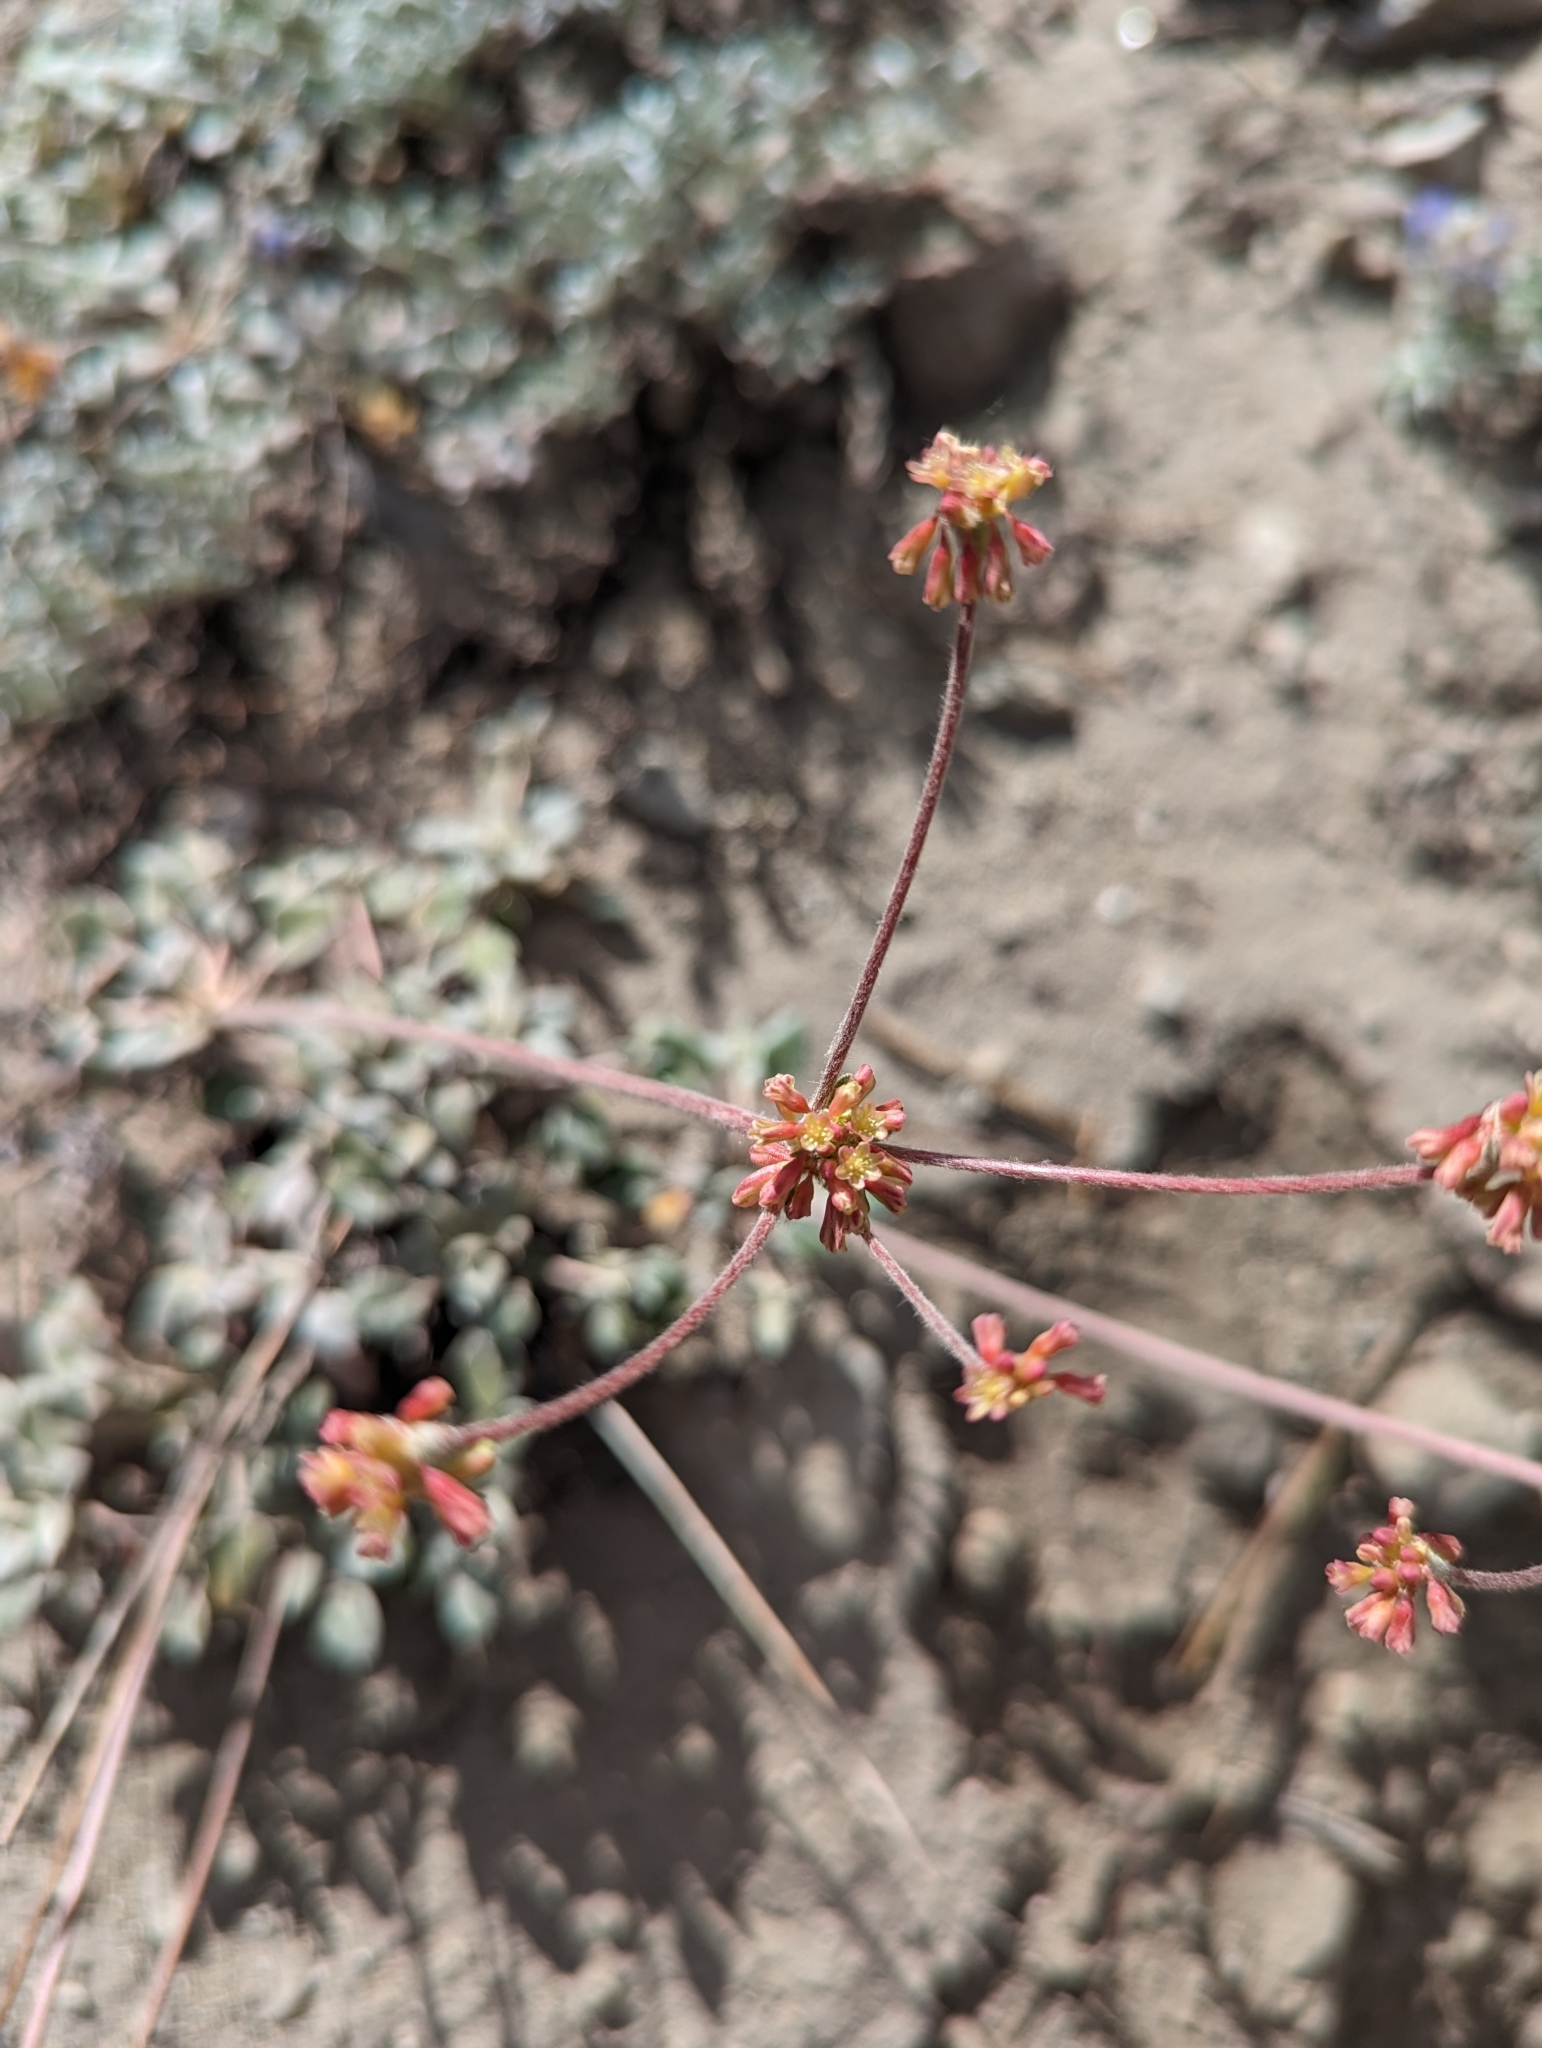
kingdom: Plantae
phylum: Tracheophyta
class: Magnoliopsida
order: Caryophyllales
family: Polygonaceae
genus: Eriogonum
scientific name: Eriogonum marifolium
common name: Marum-leaf wild buckwheat
